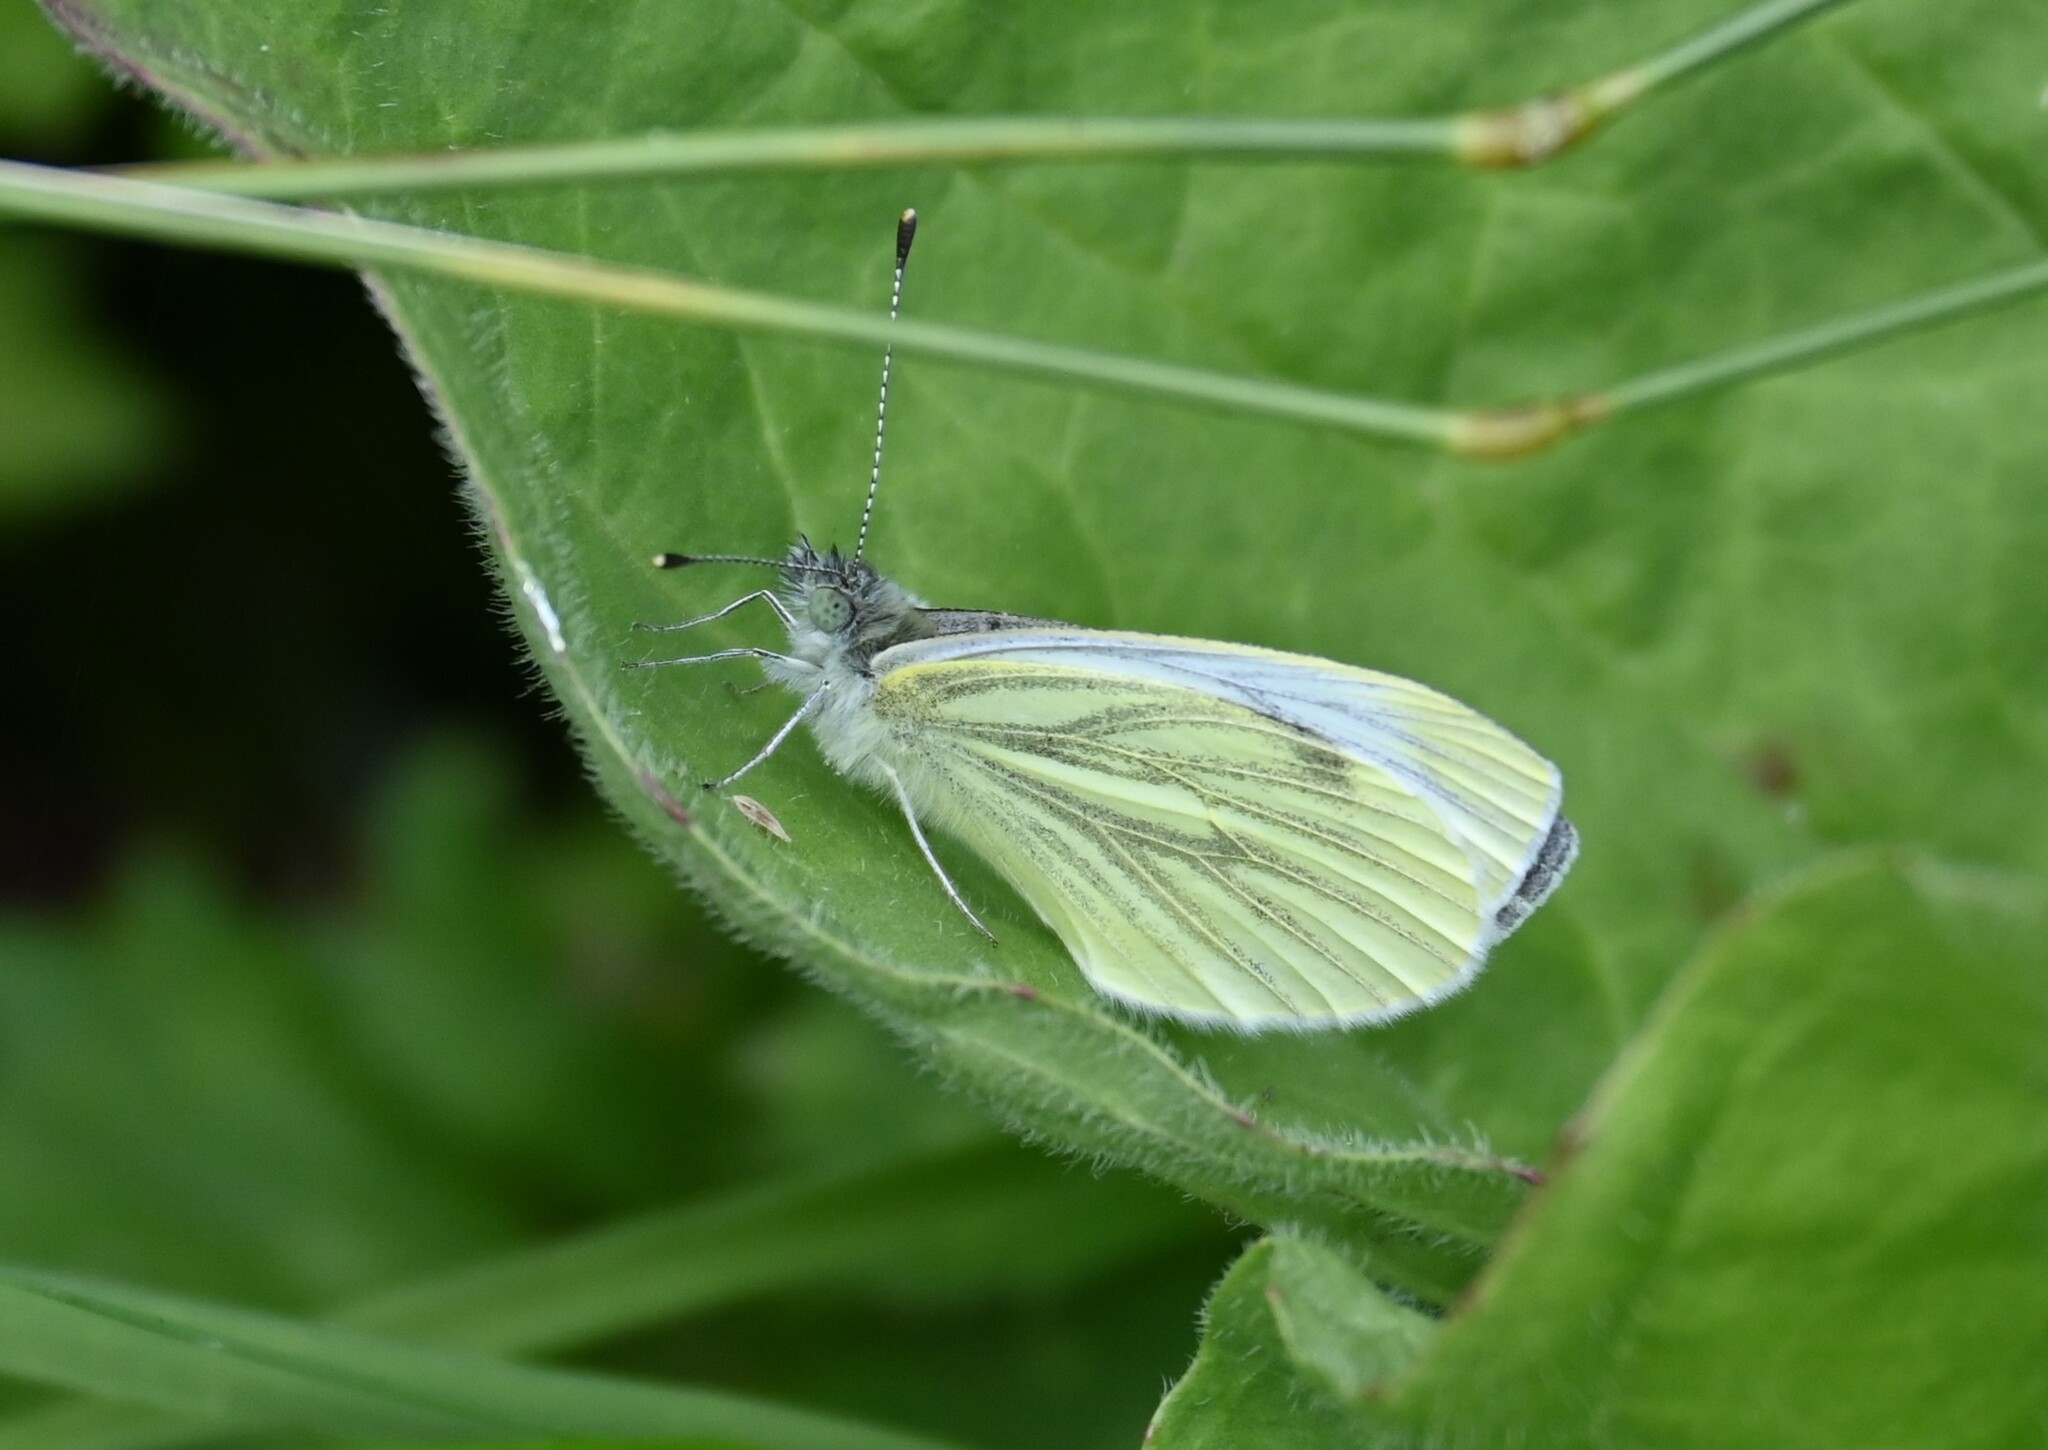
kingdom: Animalia
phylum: Arthropoda
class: Insecta
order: Lepidoptera
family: Pieridae
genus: Pieris
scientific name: Pieris napi
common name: Green-veined white
